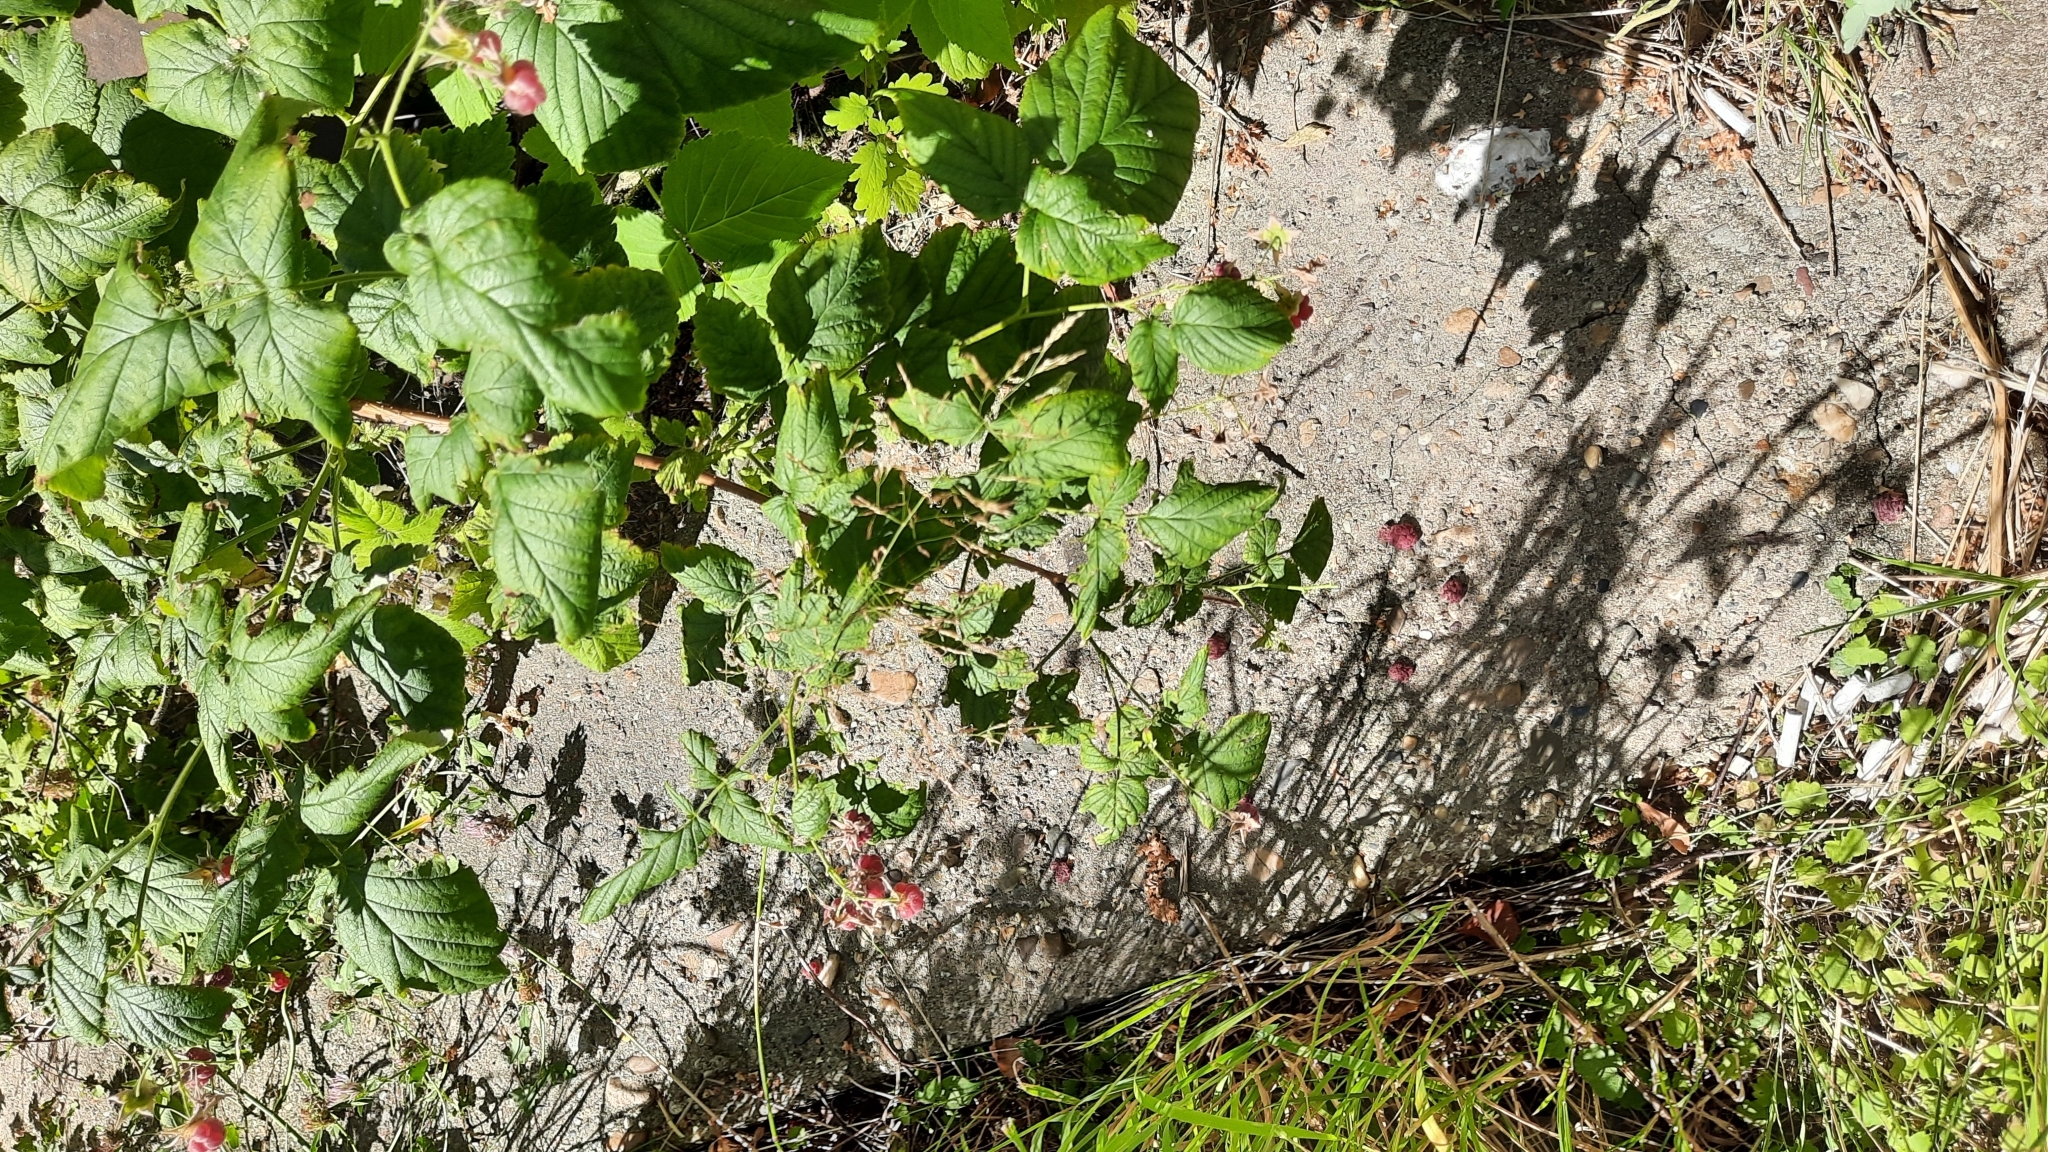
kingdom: Plantae
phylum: Tracheophyta
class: Magnoliopsida
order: Rosales
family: Rosaceae
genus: Rubus
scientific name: Rubus idaeus
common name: Raspberry
